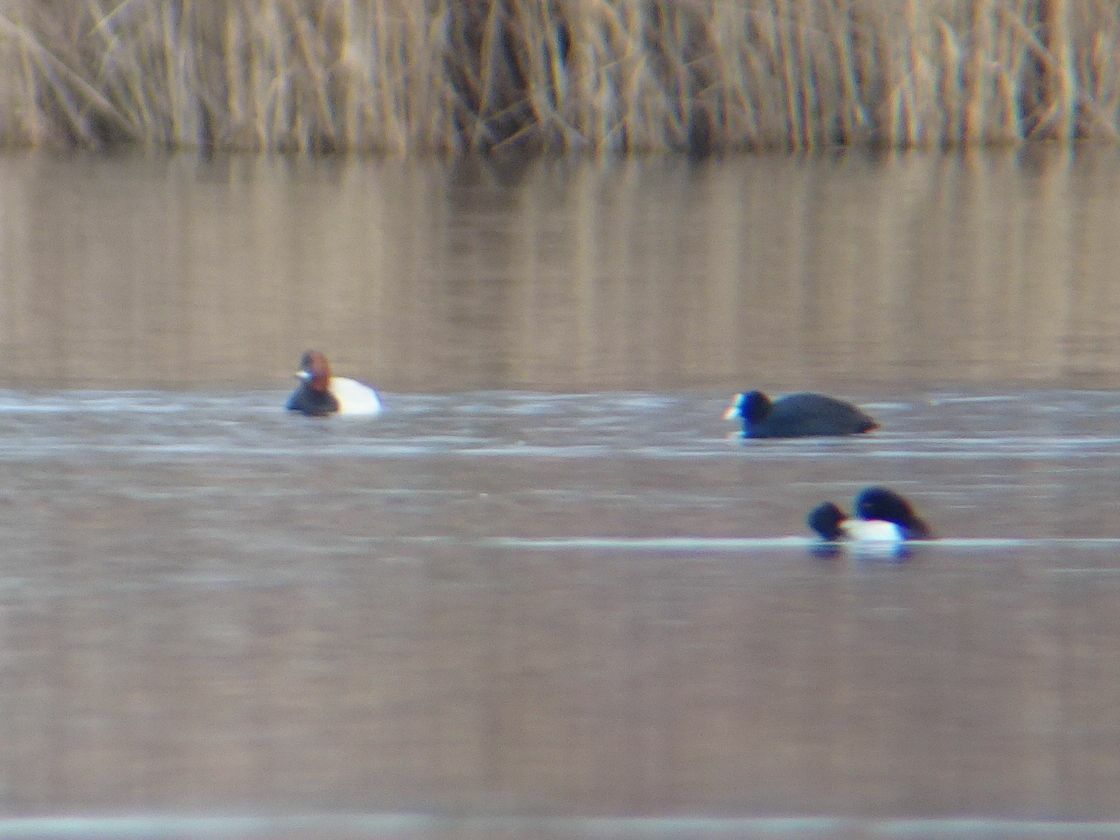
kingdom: Animalia
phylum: Chordata
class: Aves
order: Anseriformes
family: Anatidae
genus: Aythya
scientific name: Aythya fuligula
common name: Tufted duck
